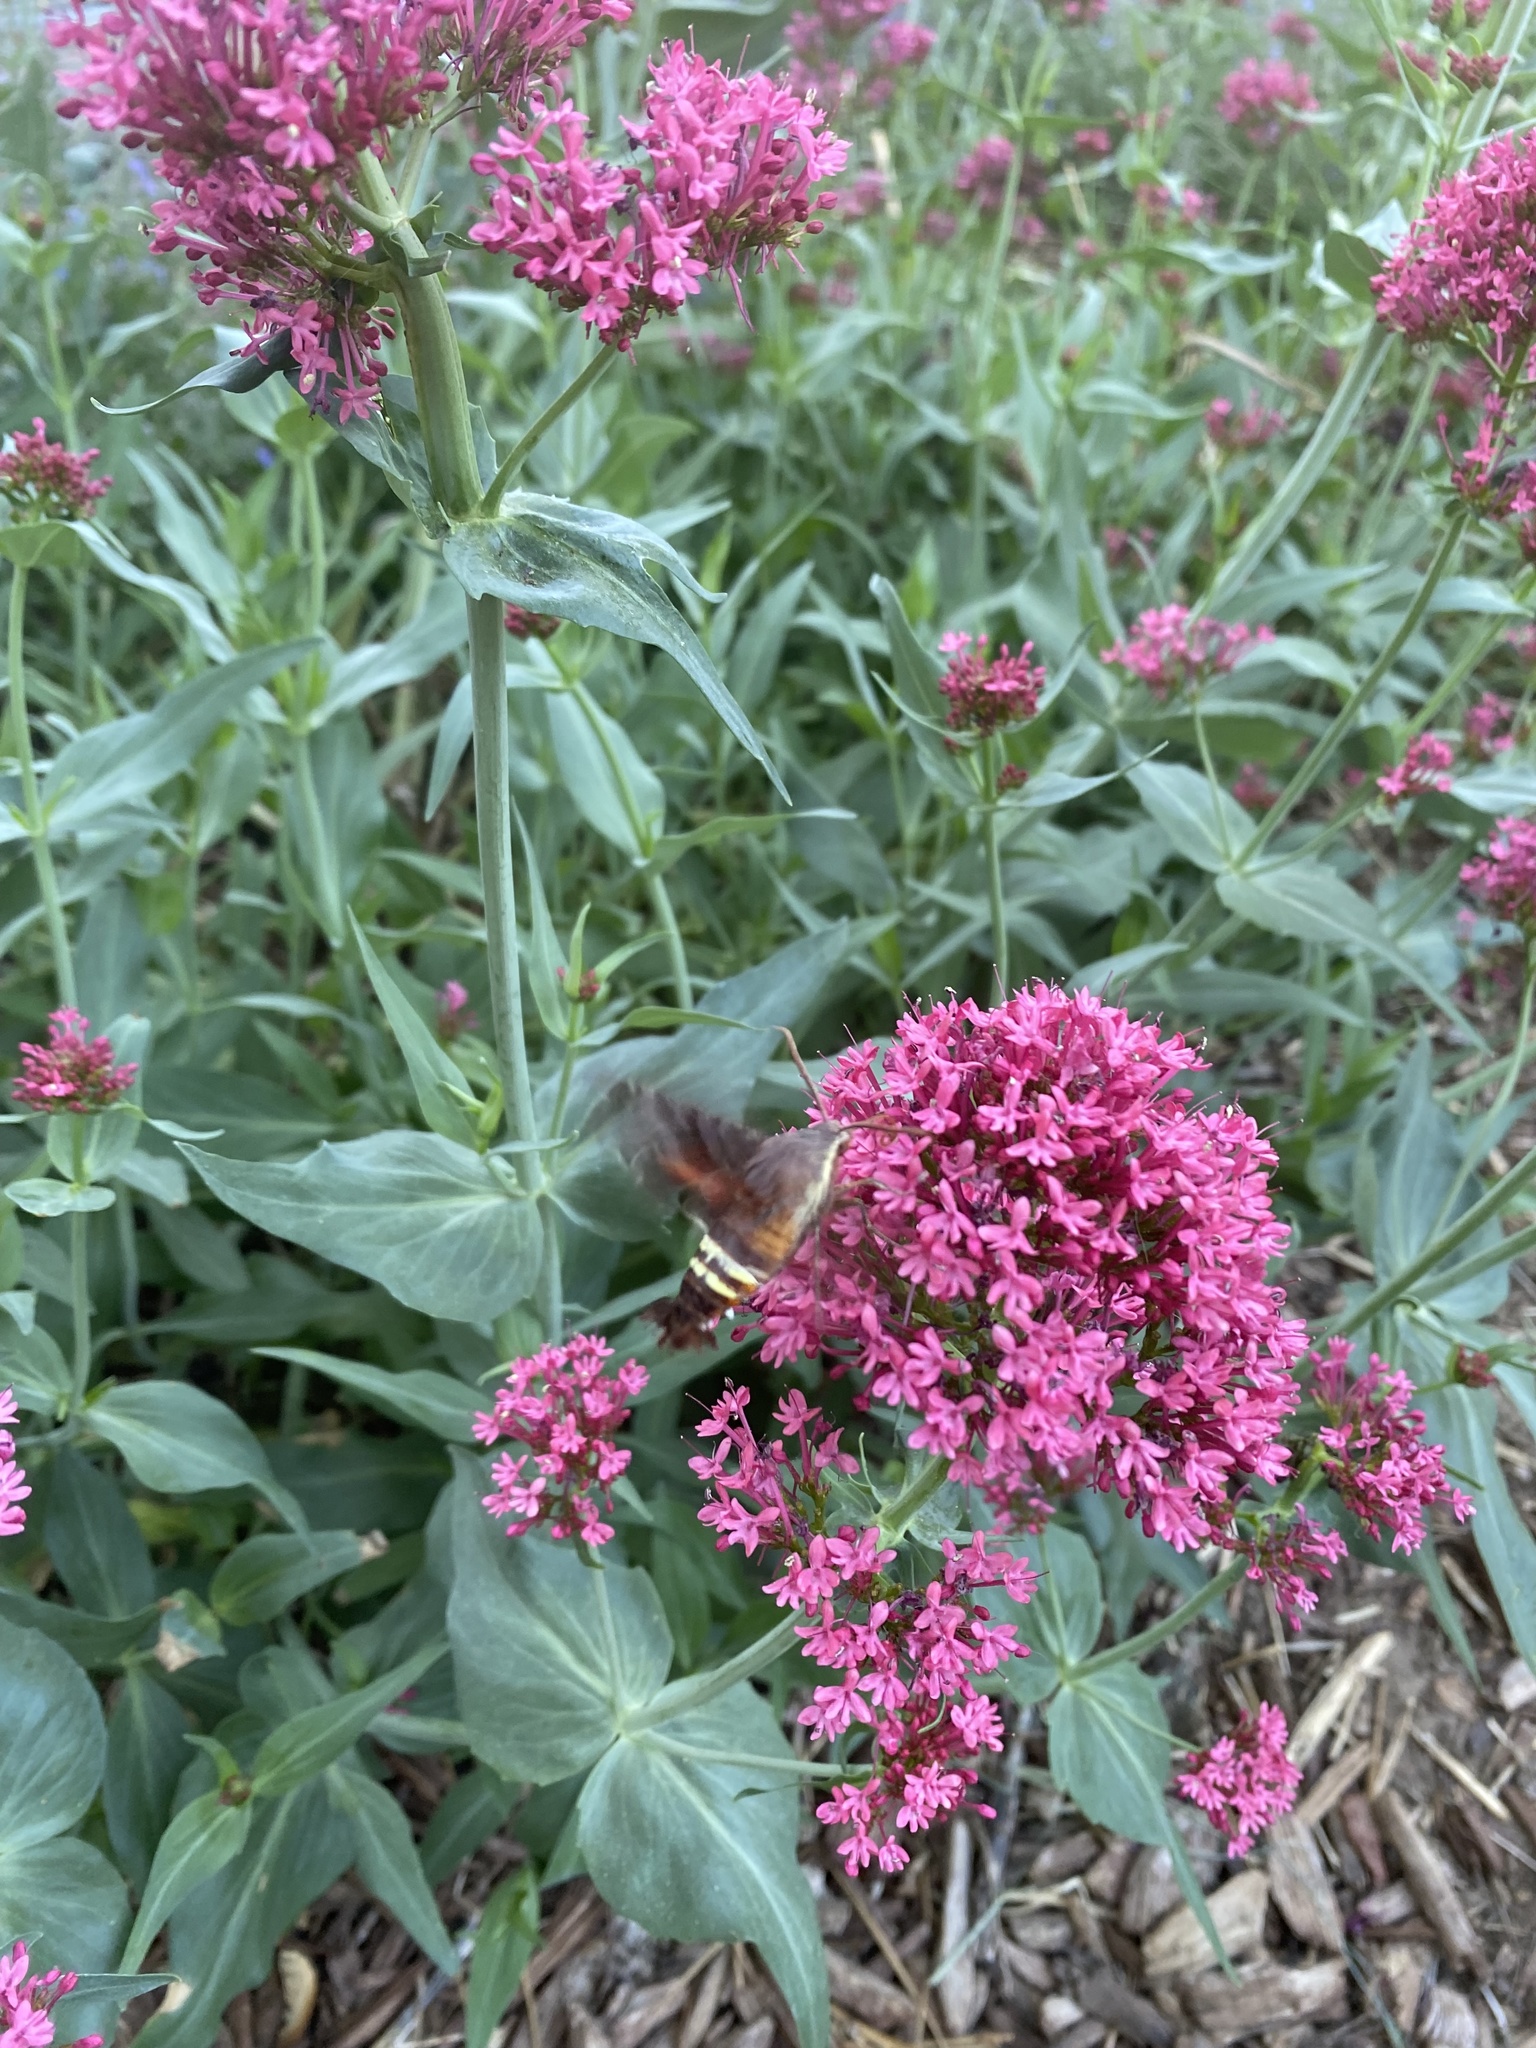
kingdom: Animalia
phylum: Arthropoda
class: Insecta
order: Lepidoptera
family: Sphingidae
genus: Amphion
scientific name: Amphion floridensis
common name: Nessus sphinx
